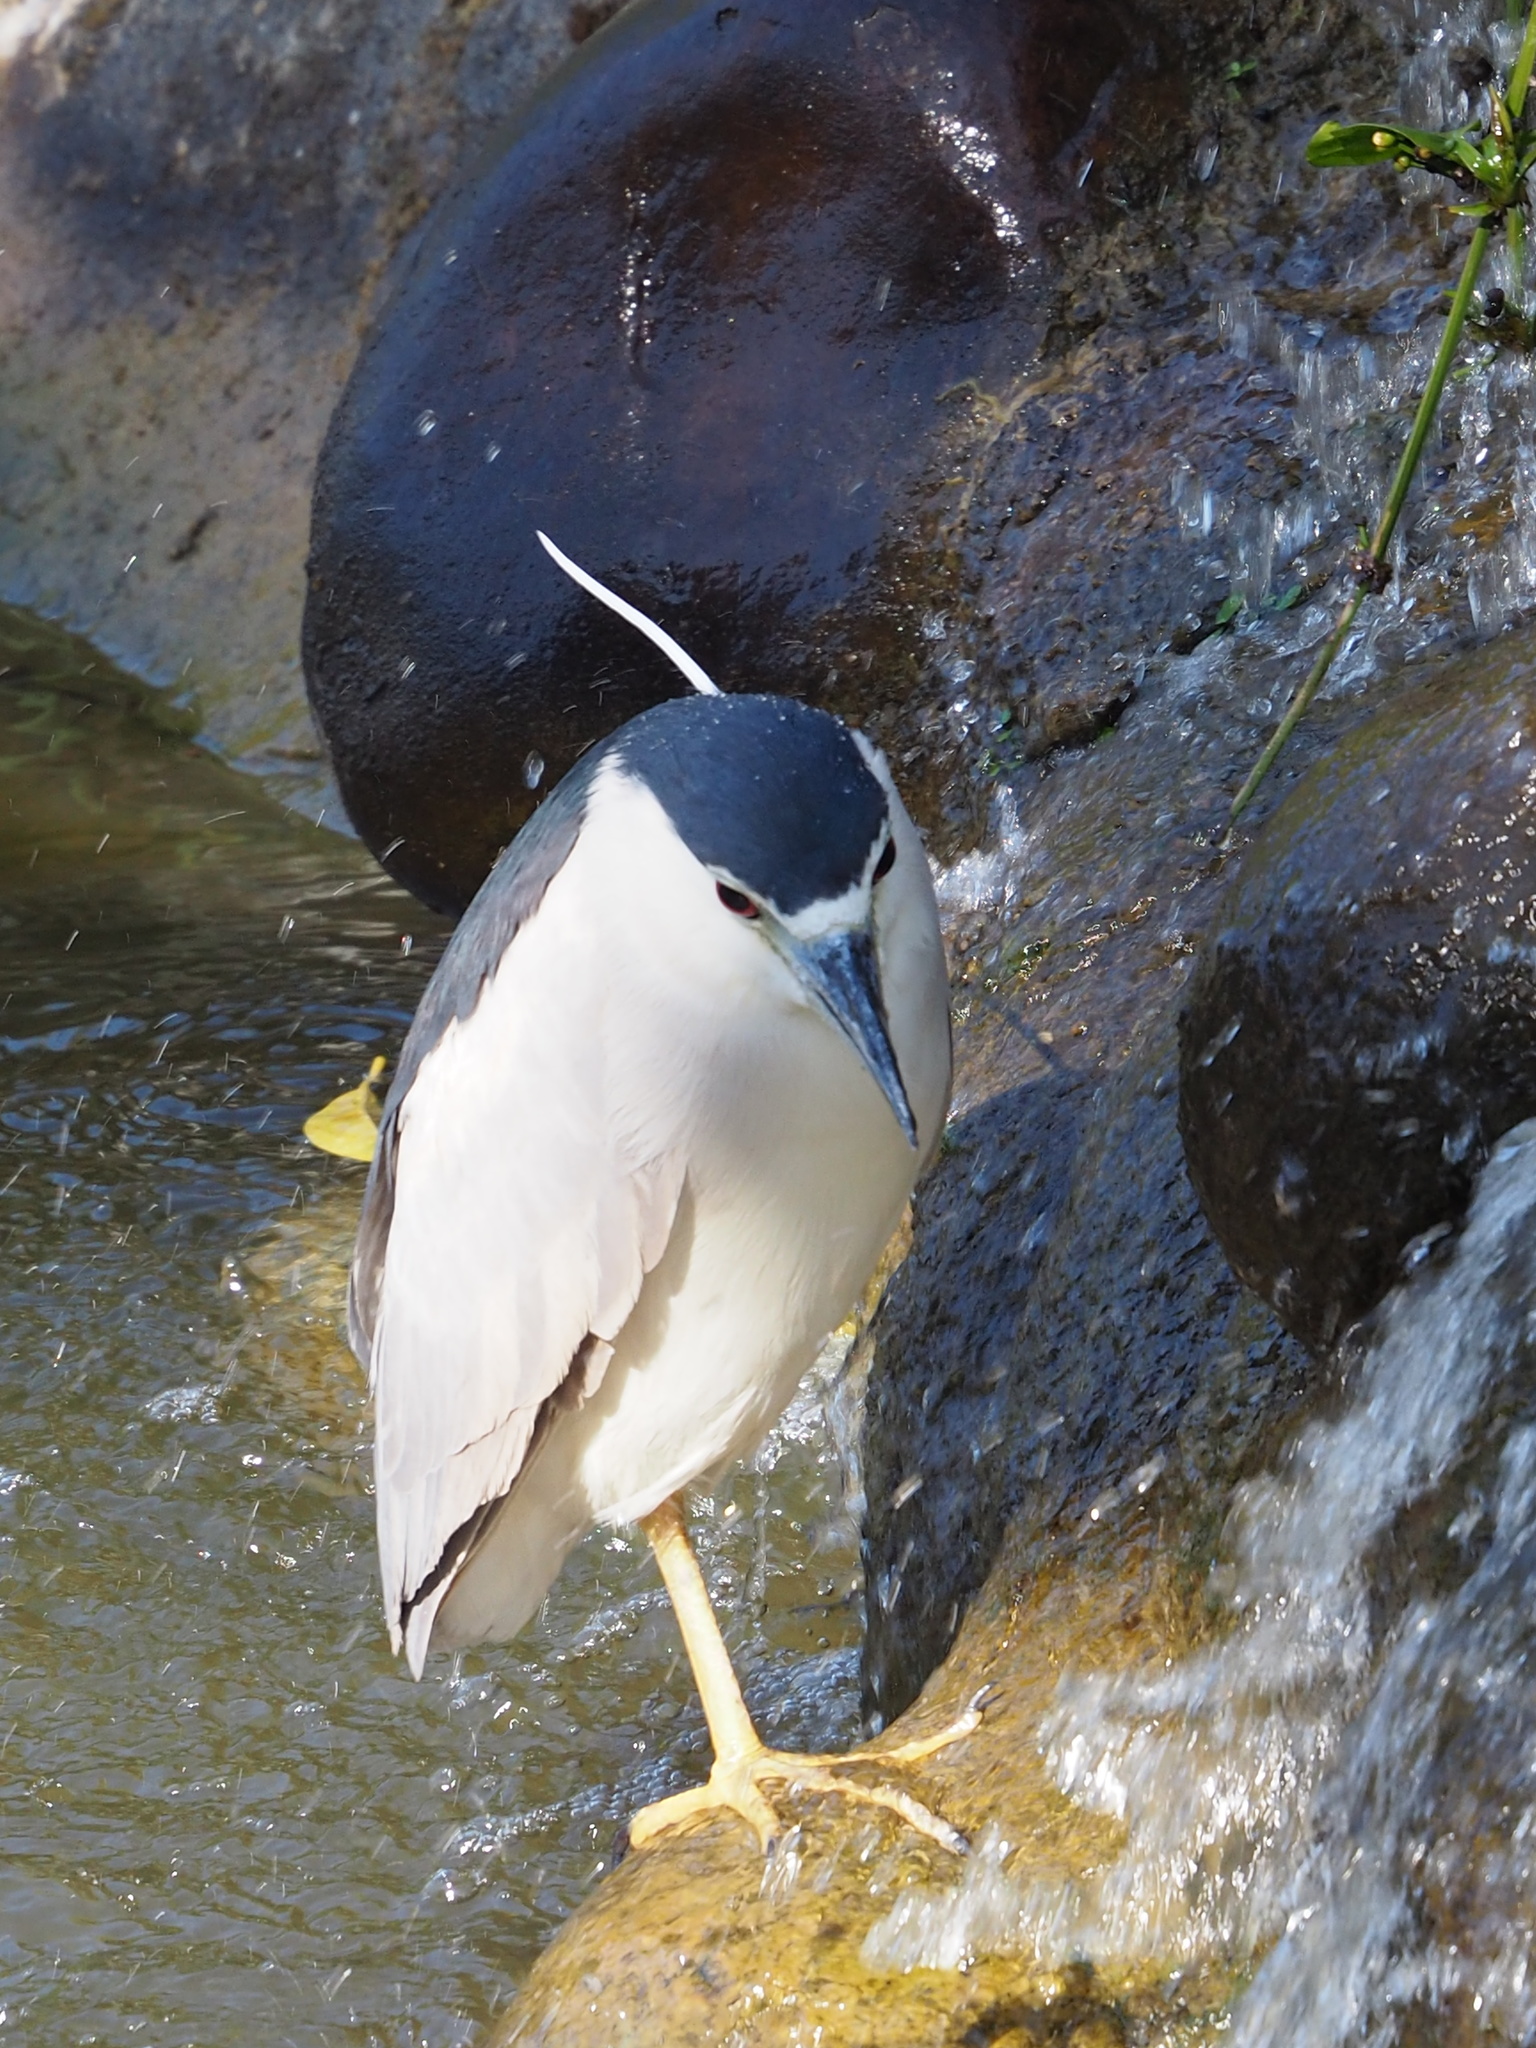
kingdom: Animalia
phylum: Chordata
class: Aves
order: Pelecaniformes
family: Ardeidae
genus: Nycticorax
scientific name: Nycticorax nycticorax
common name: Black-crowned night heron
